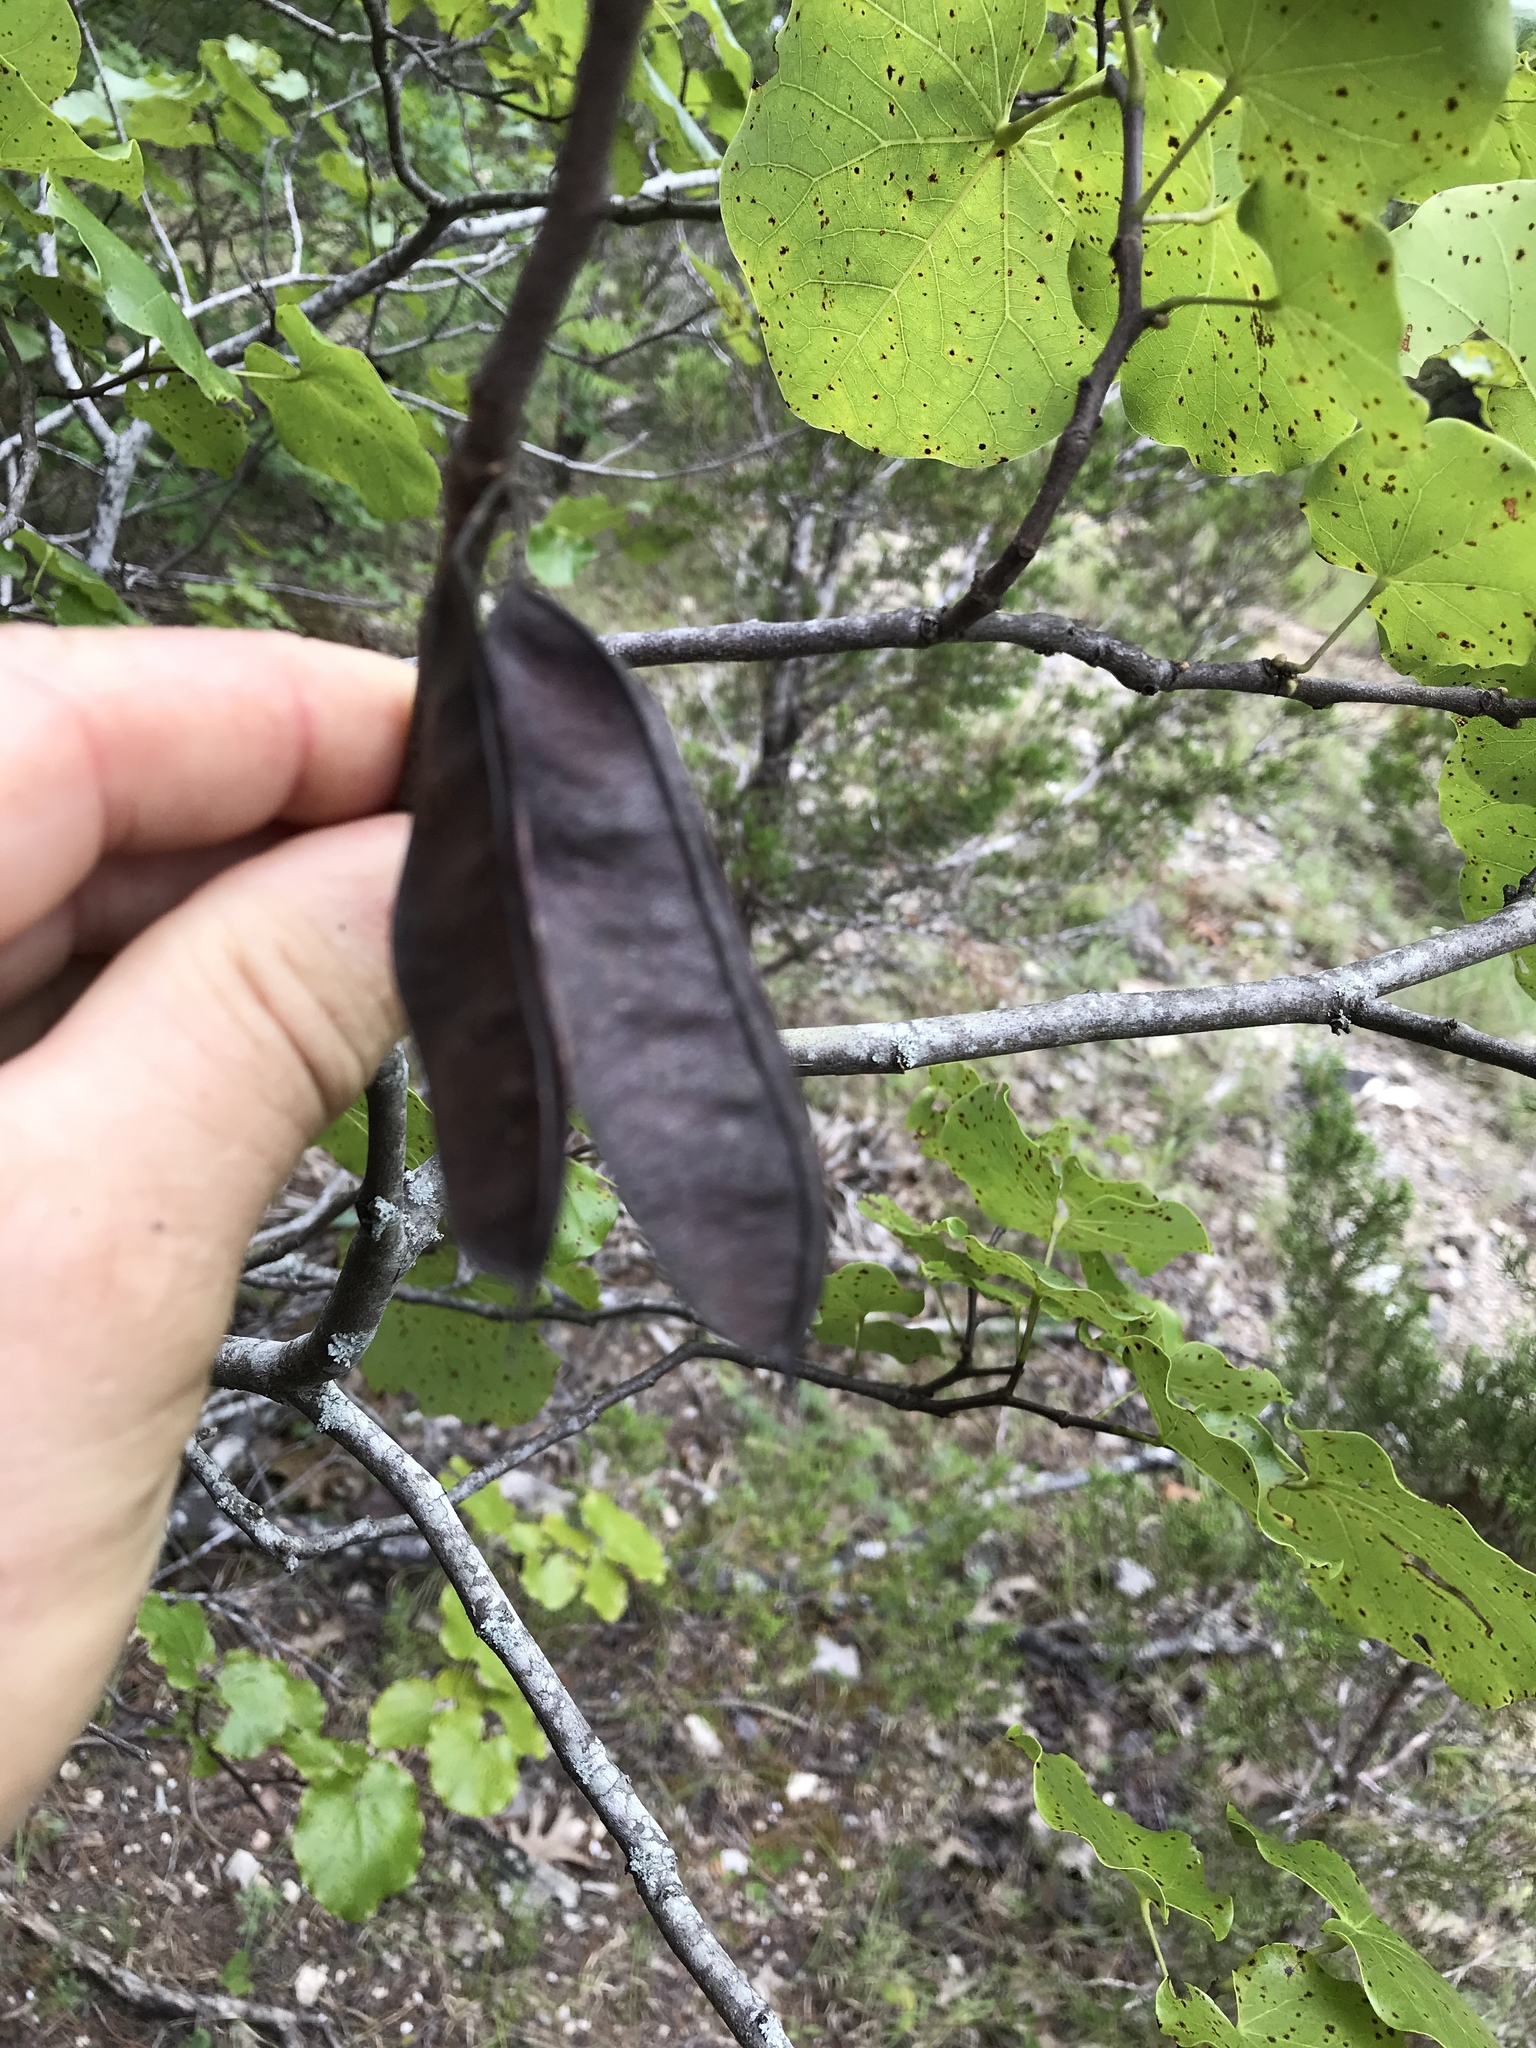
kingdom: Plantae
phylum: Tracheophyta
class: Magnoliopsida
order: Fabales
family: Fabaceae
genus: Cercis
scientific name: Cercis canadensis
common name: Eastern redbud
